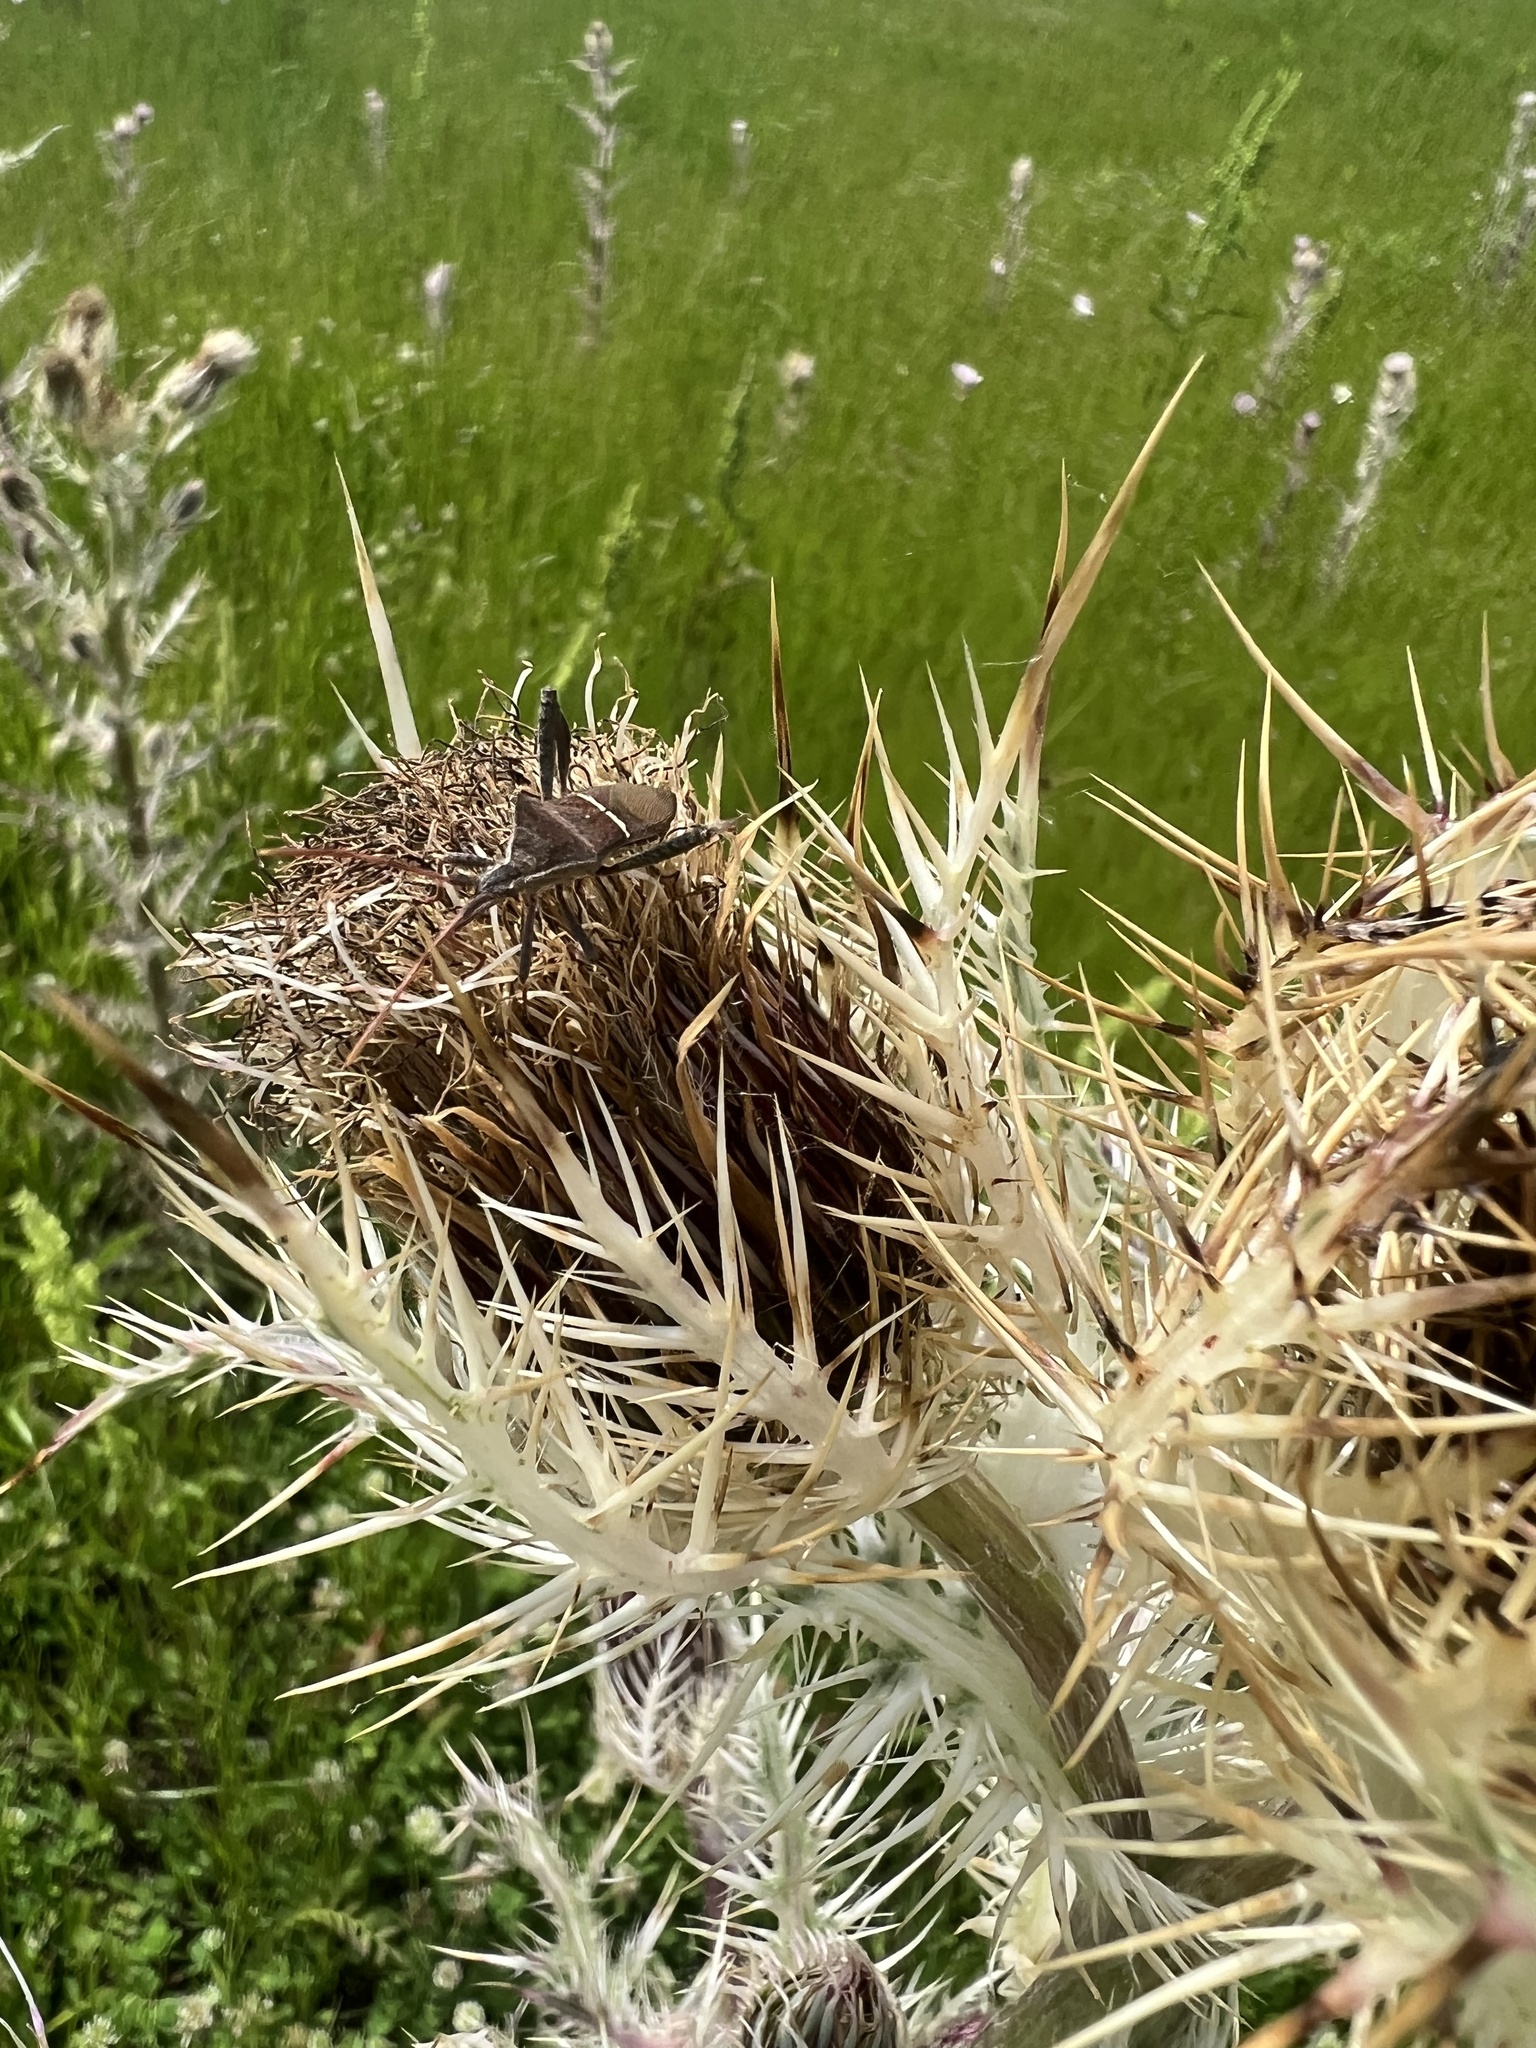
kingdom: Animalia
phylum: Arthropoda
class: Insecta
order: Hemiptera
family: Coreidae
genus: Leptoglossus
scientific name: Leptoglossus phyllopus
